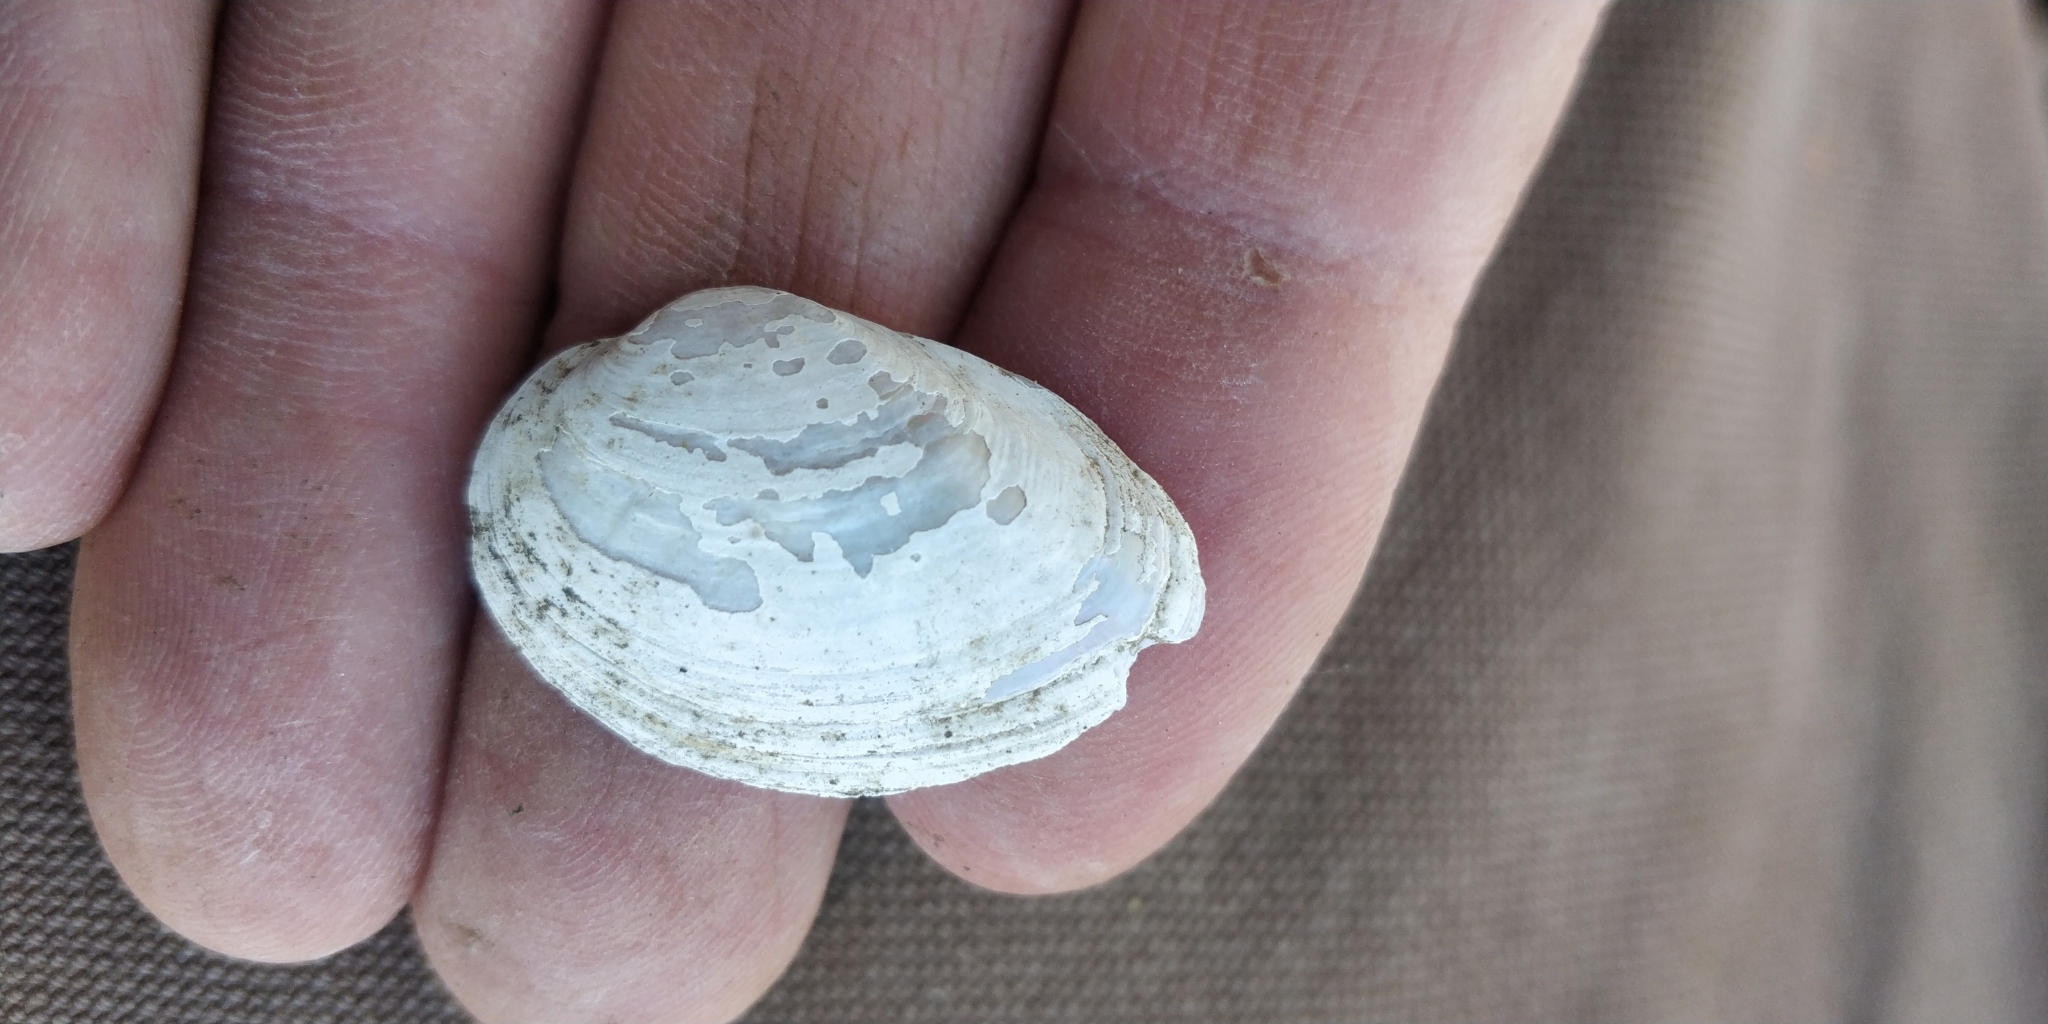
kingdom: Animalia
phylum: Mollusca
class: Bivalvia
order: Unionida
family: Unionidae
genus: Truncilla
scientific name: Truncilla donaciformis
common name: Fawnsfoot
